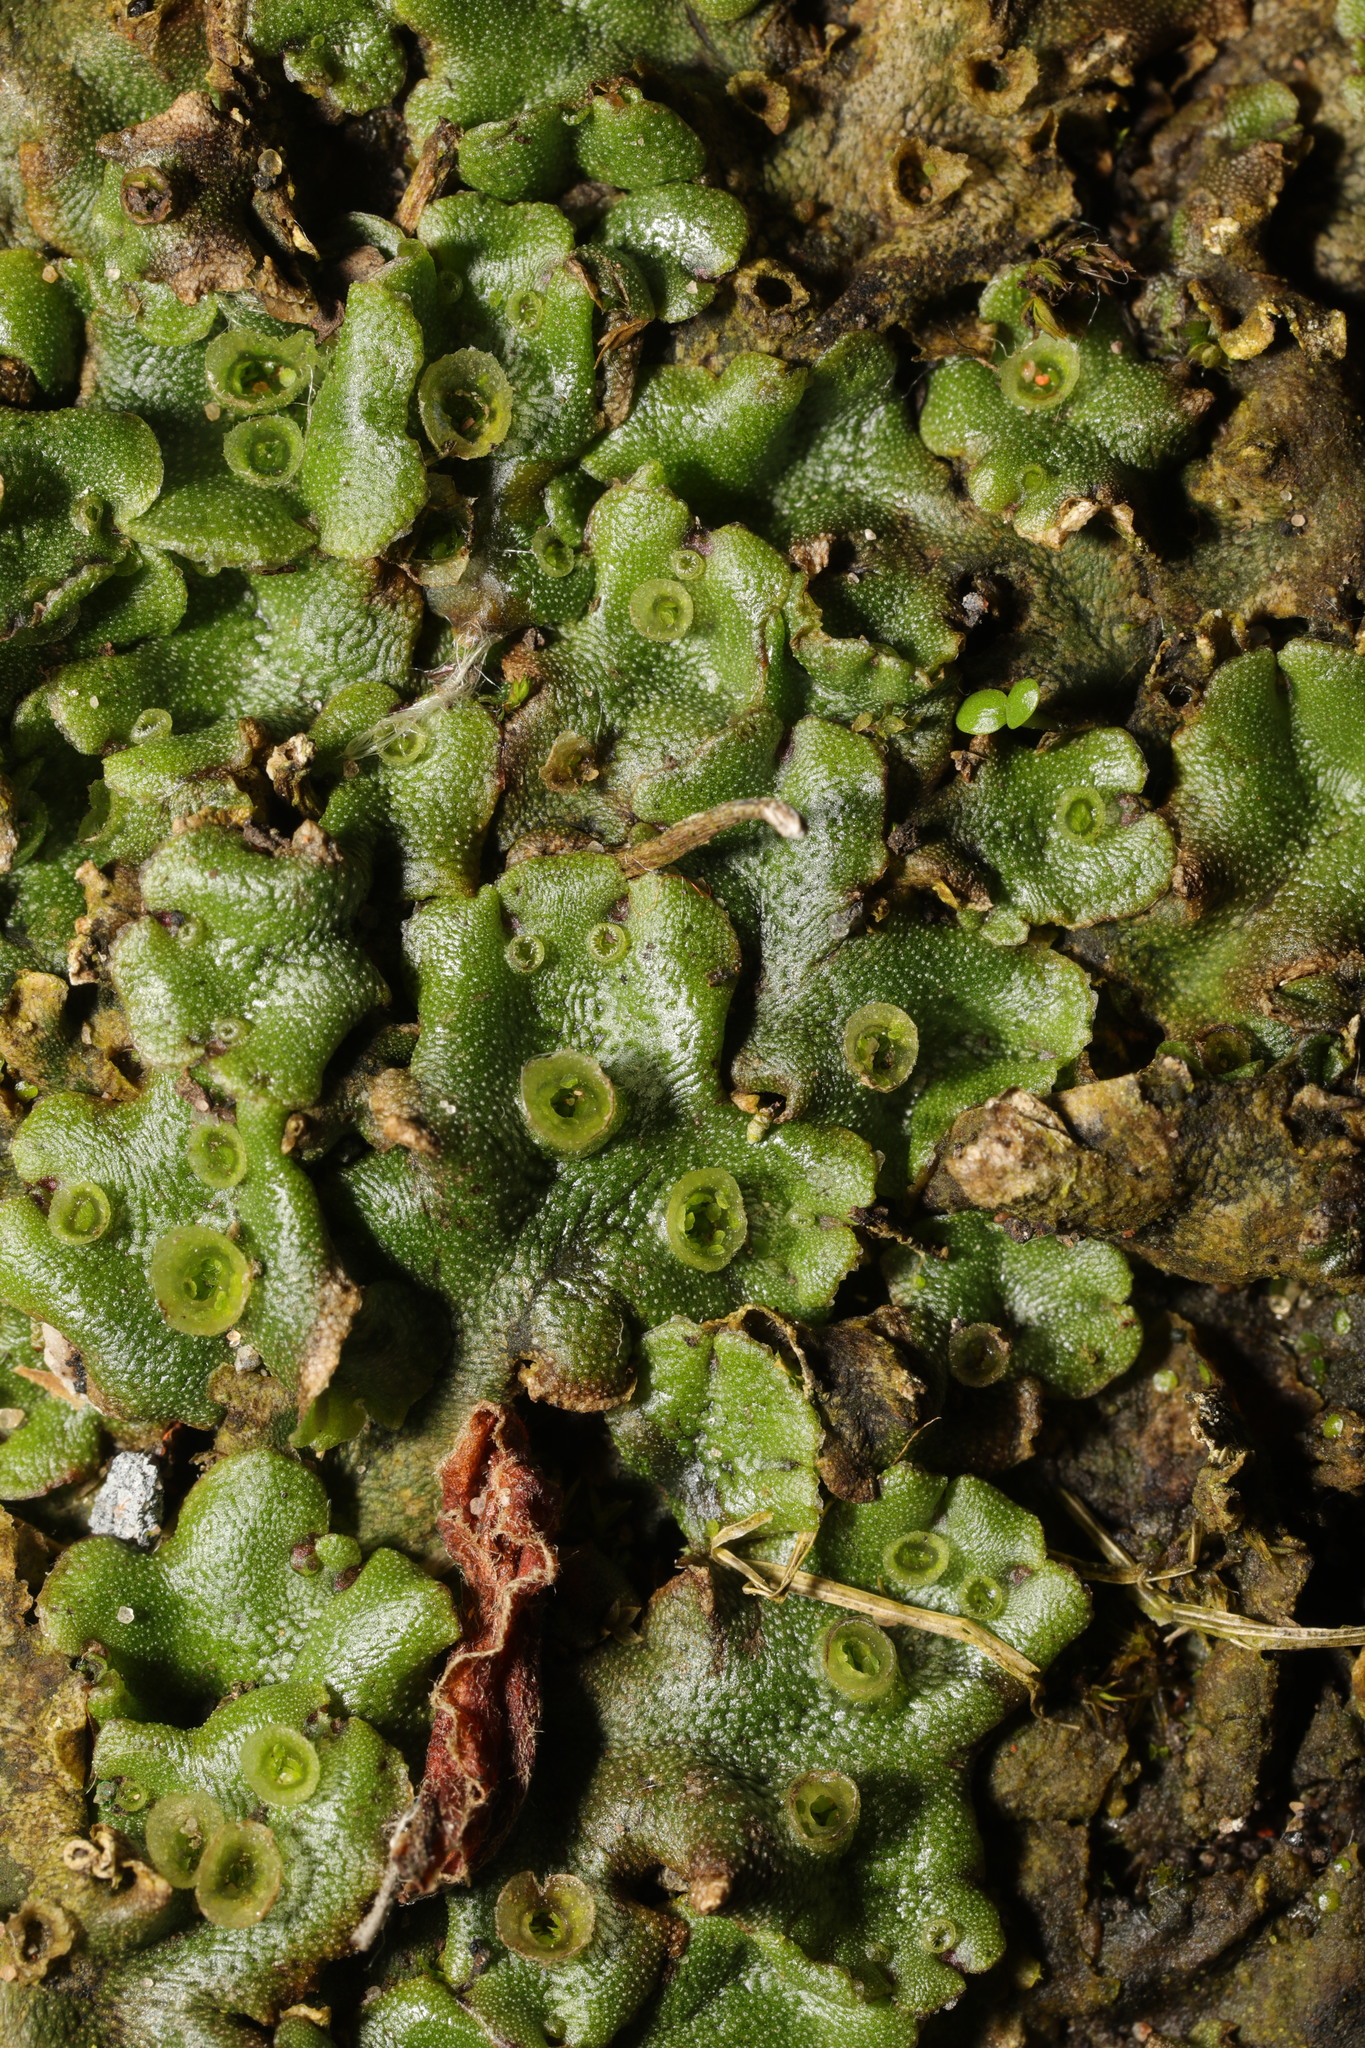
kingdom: Plantae
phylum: Marchantiophyta
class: Marchantiopsida
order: Marchantiales
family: Marchantiaceae
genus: Marchantia
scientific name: Marchantia polymorpha
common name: Common liverwort
